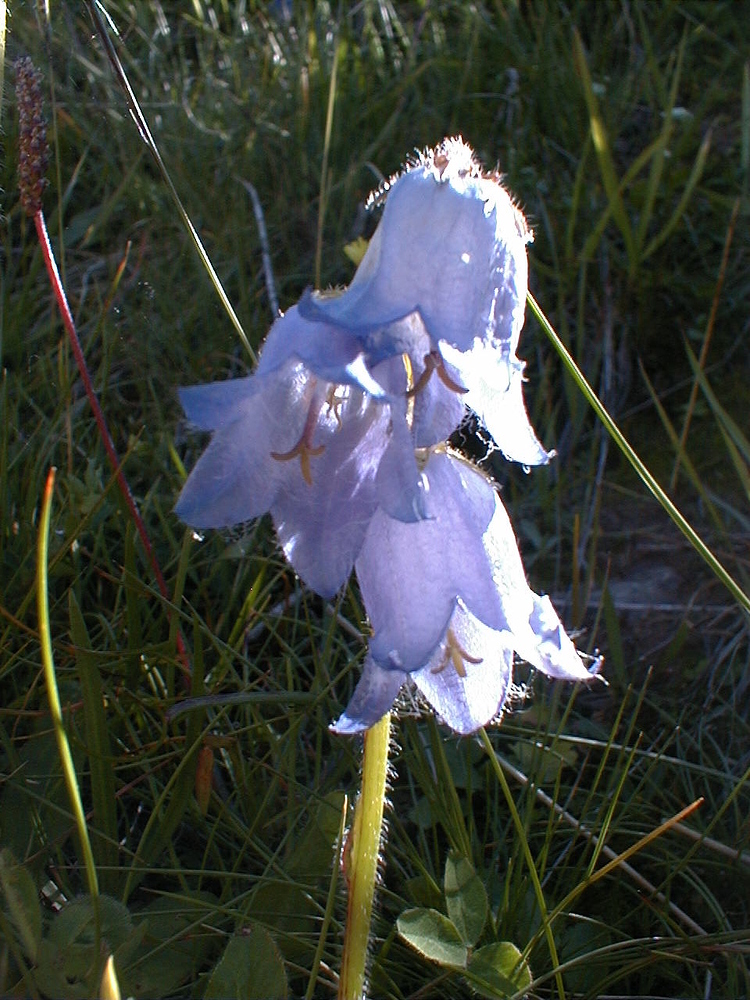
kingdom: Plantae
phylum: Tracheophyta
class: Magnoliopsida
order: Asterales
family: Campanulaceae
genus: Campanula
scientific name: Campanula barbata
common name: Bearded bellflower
